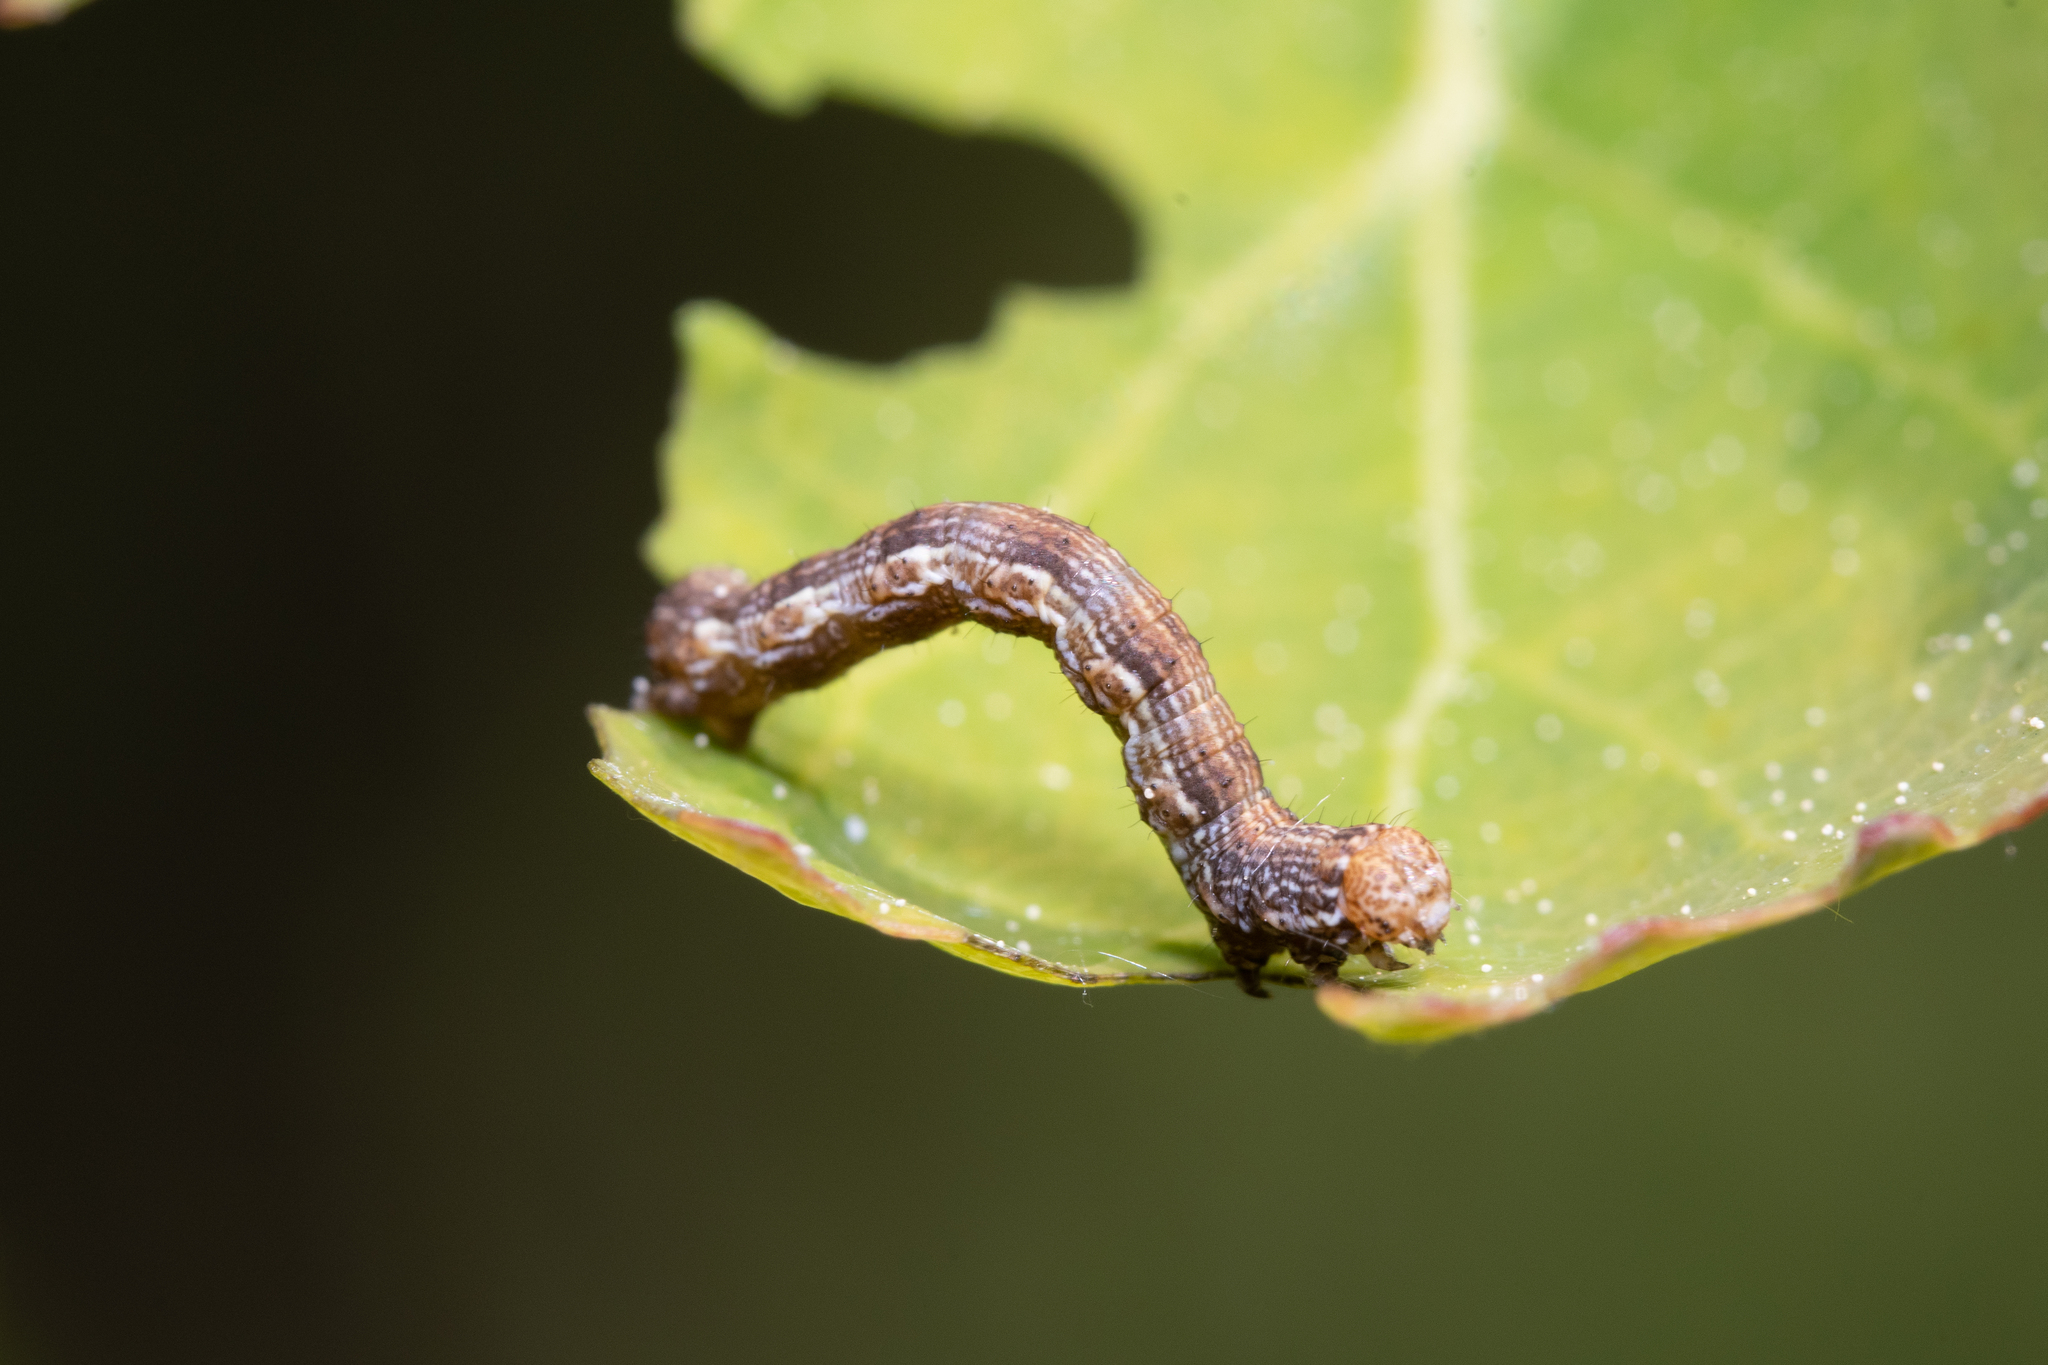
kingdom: Animalia
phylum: Arthropoda
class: Insecta
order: Lepidoptera
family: Geometridae
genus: Erannis
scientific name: Erannis defoliaria
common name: Mottled umber
